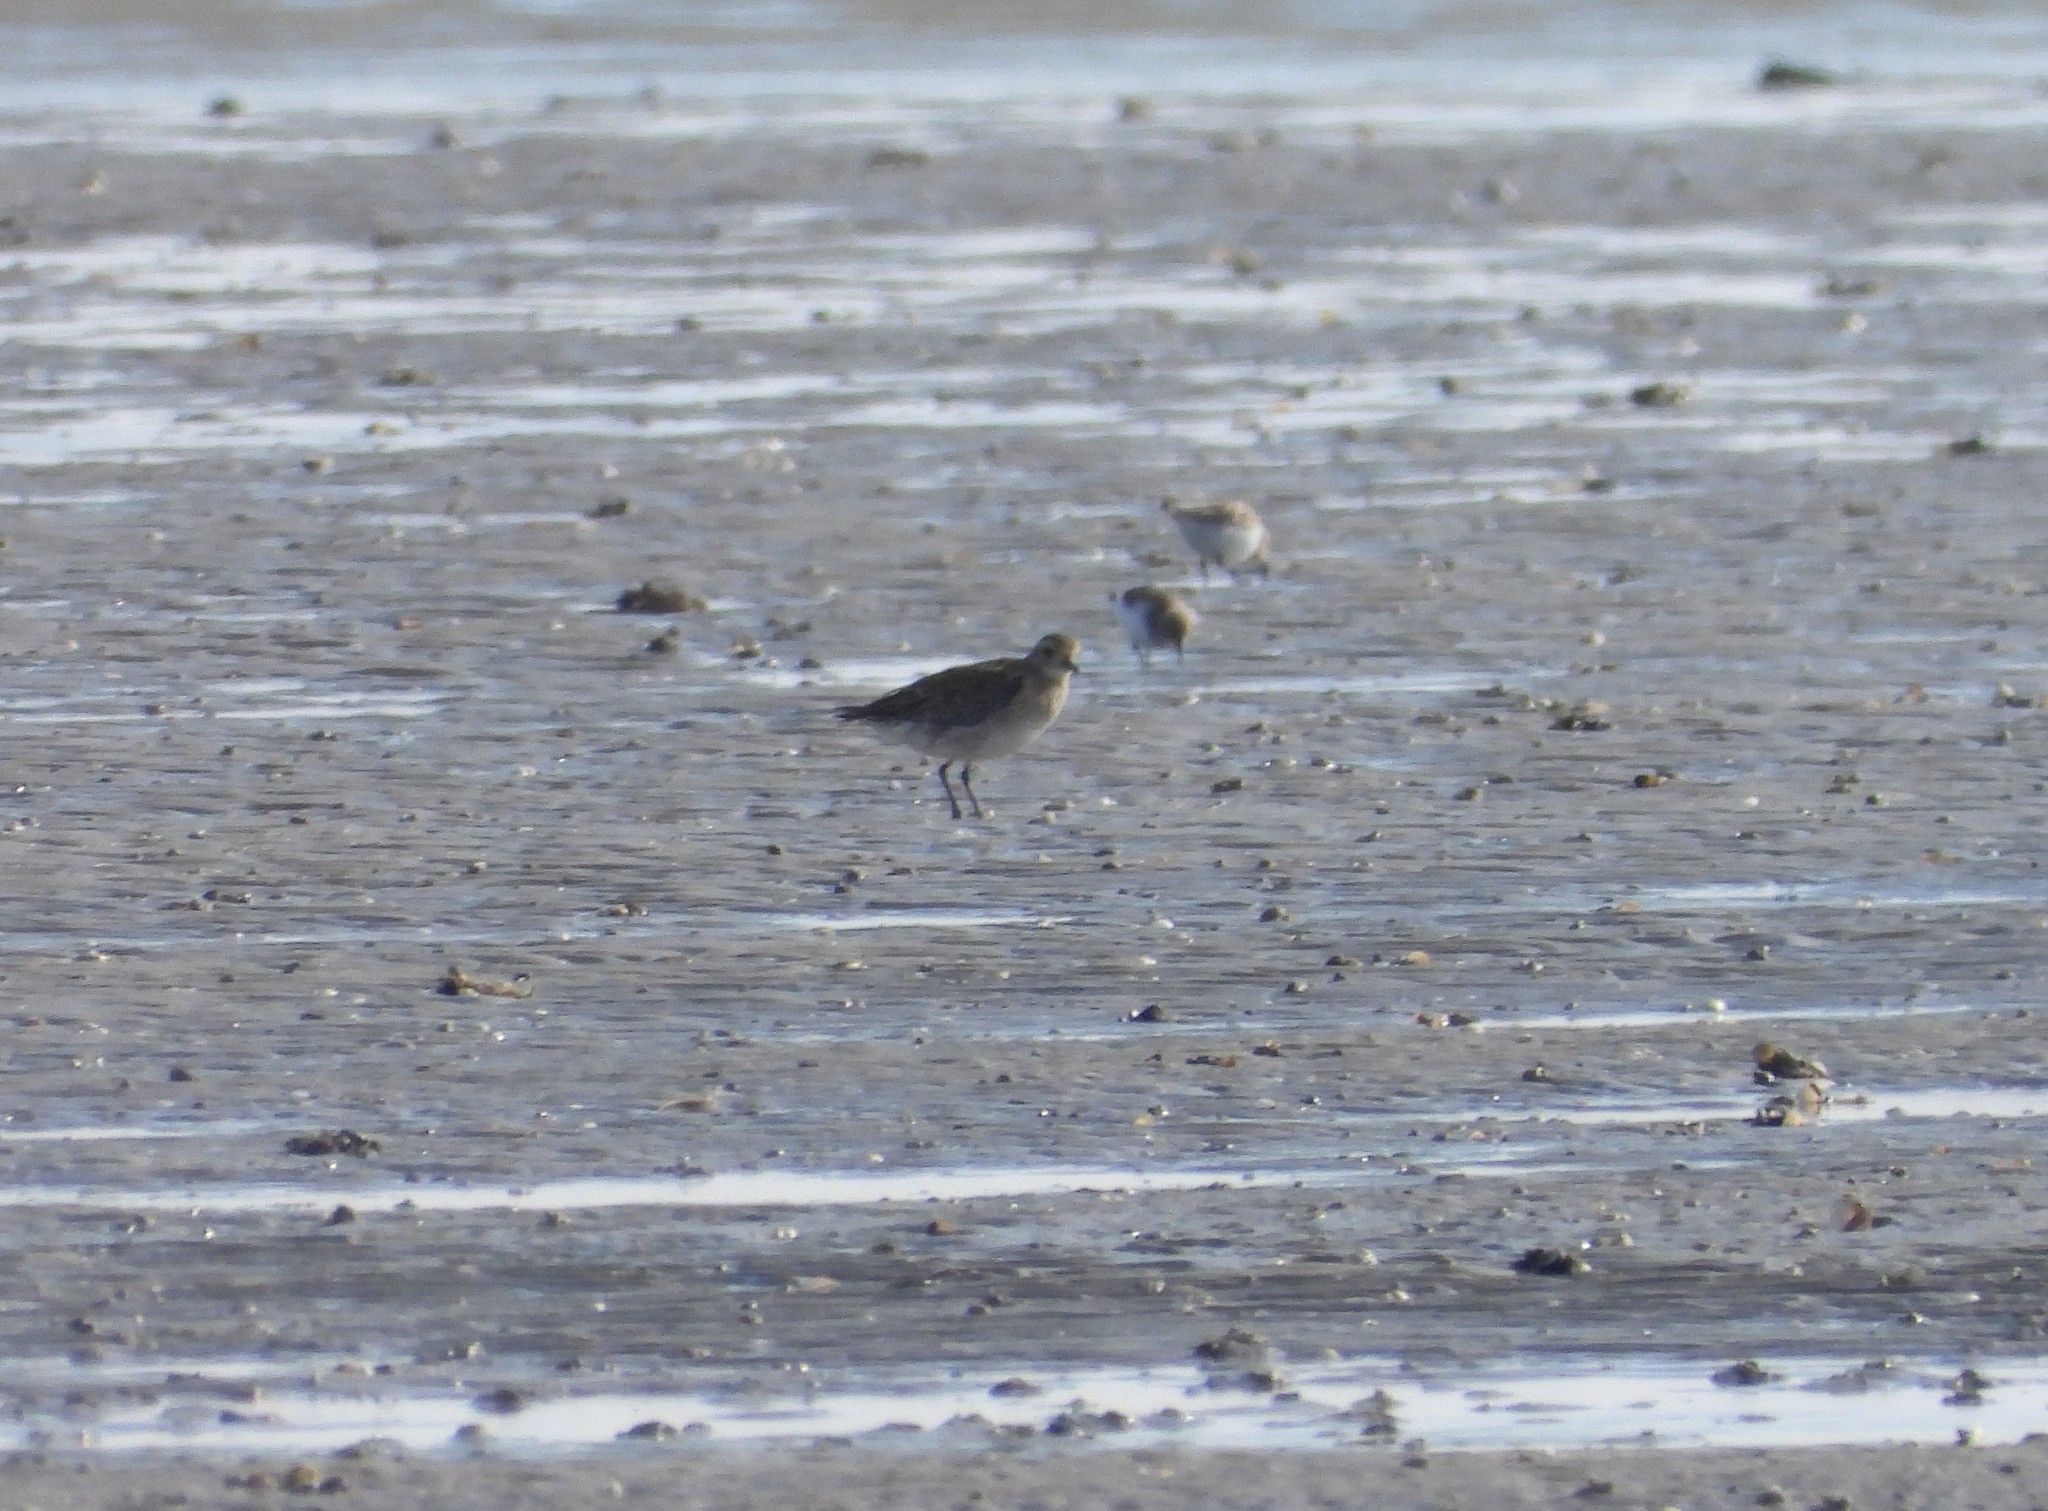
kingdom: Animalia
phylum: Chordata
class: Aves
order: Charadriiformes
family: Charadriidae
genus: Pluvialis
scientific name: Pluvialis apricaria
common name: European golden plover
